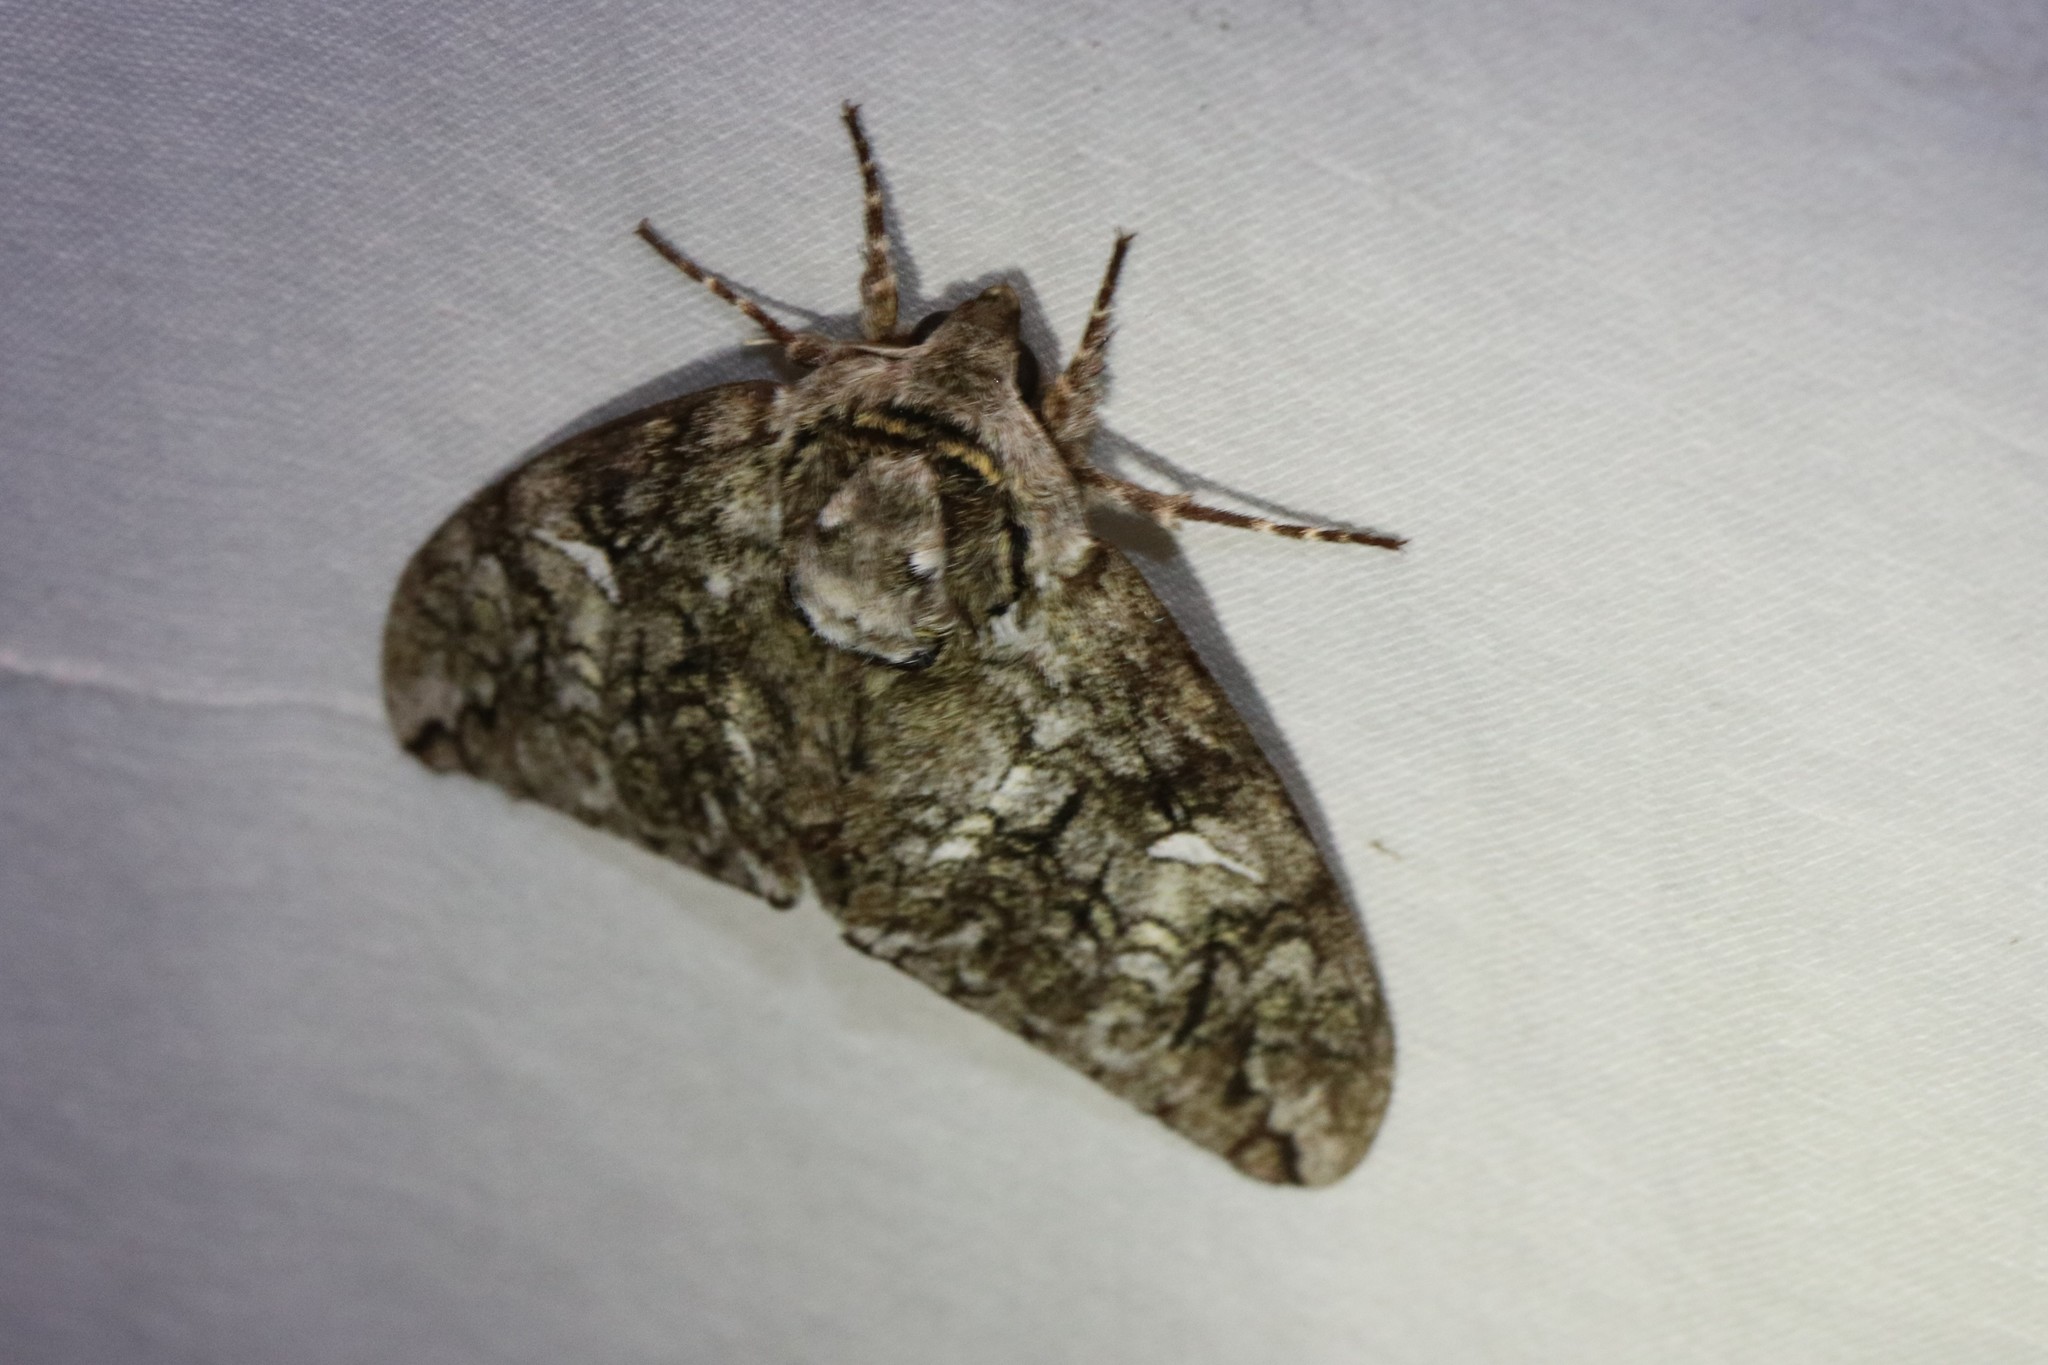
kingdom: Animalia
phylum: Arthropoda
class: Insecta
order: Lepidoptera
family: Sphingidae
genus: Ceratomia
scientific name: Ceratomia undulosa
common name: Waved sphinx
